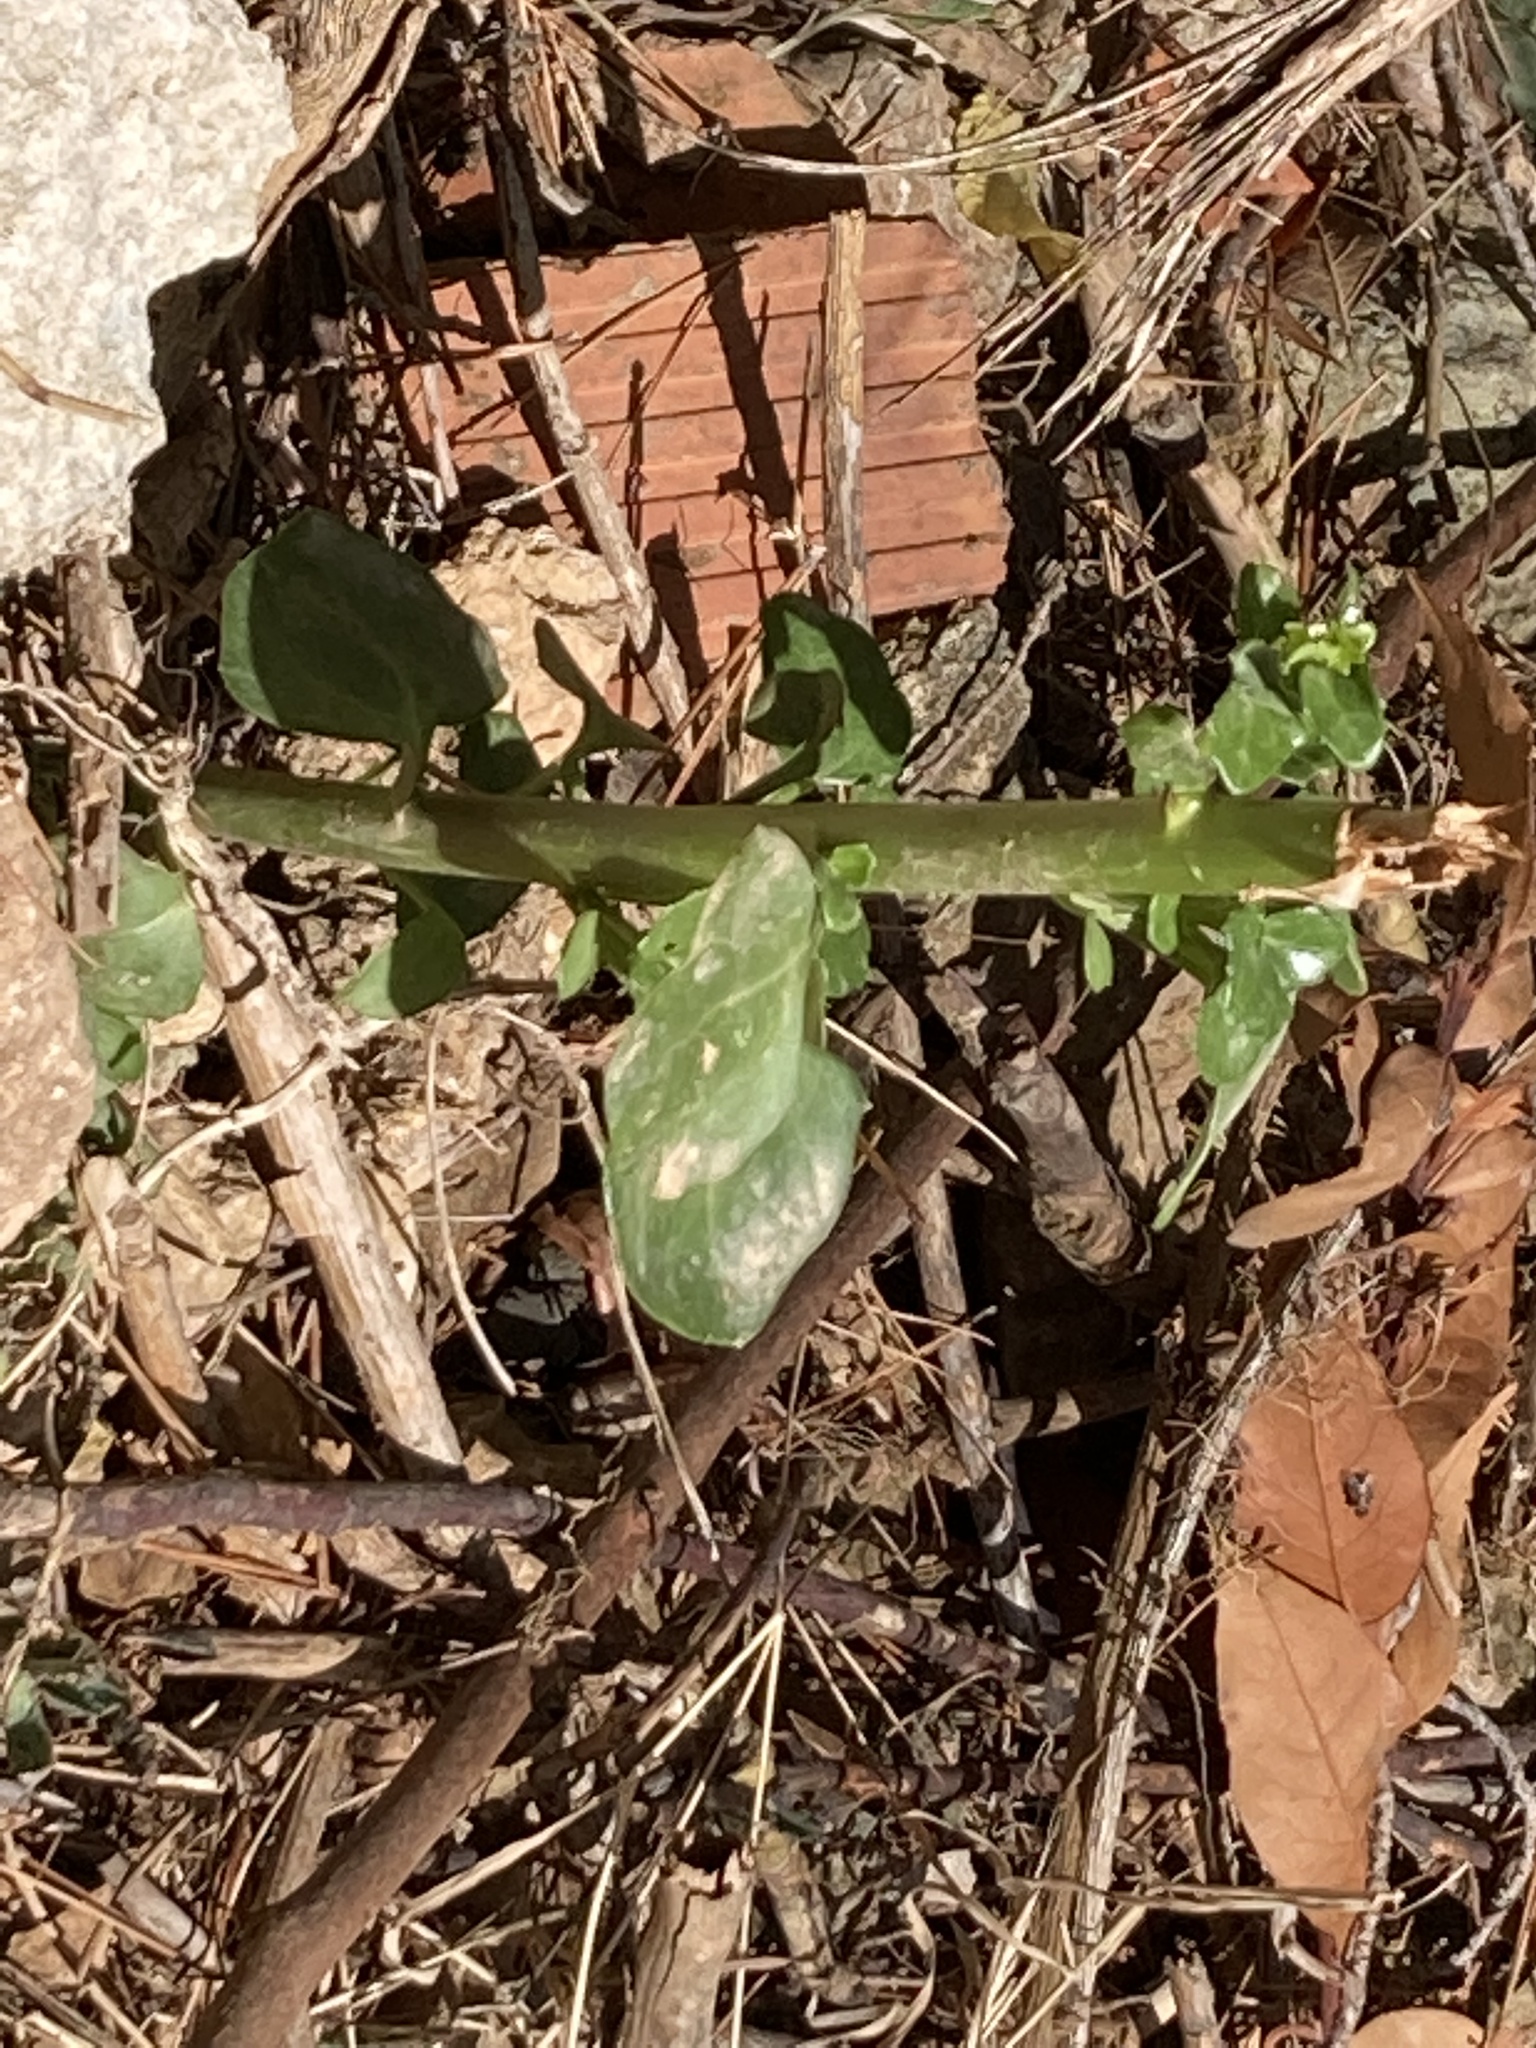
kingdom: Plantae
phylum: Tracheophyta
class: Magnoliopsida
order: Asterales
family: Asteraceae
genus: Senecio
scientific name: Senecio angulatus
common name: Climbing groundsel
